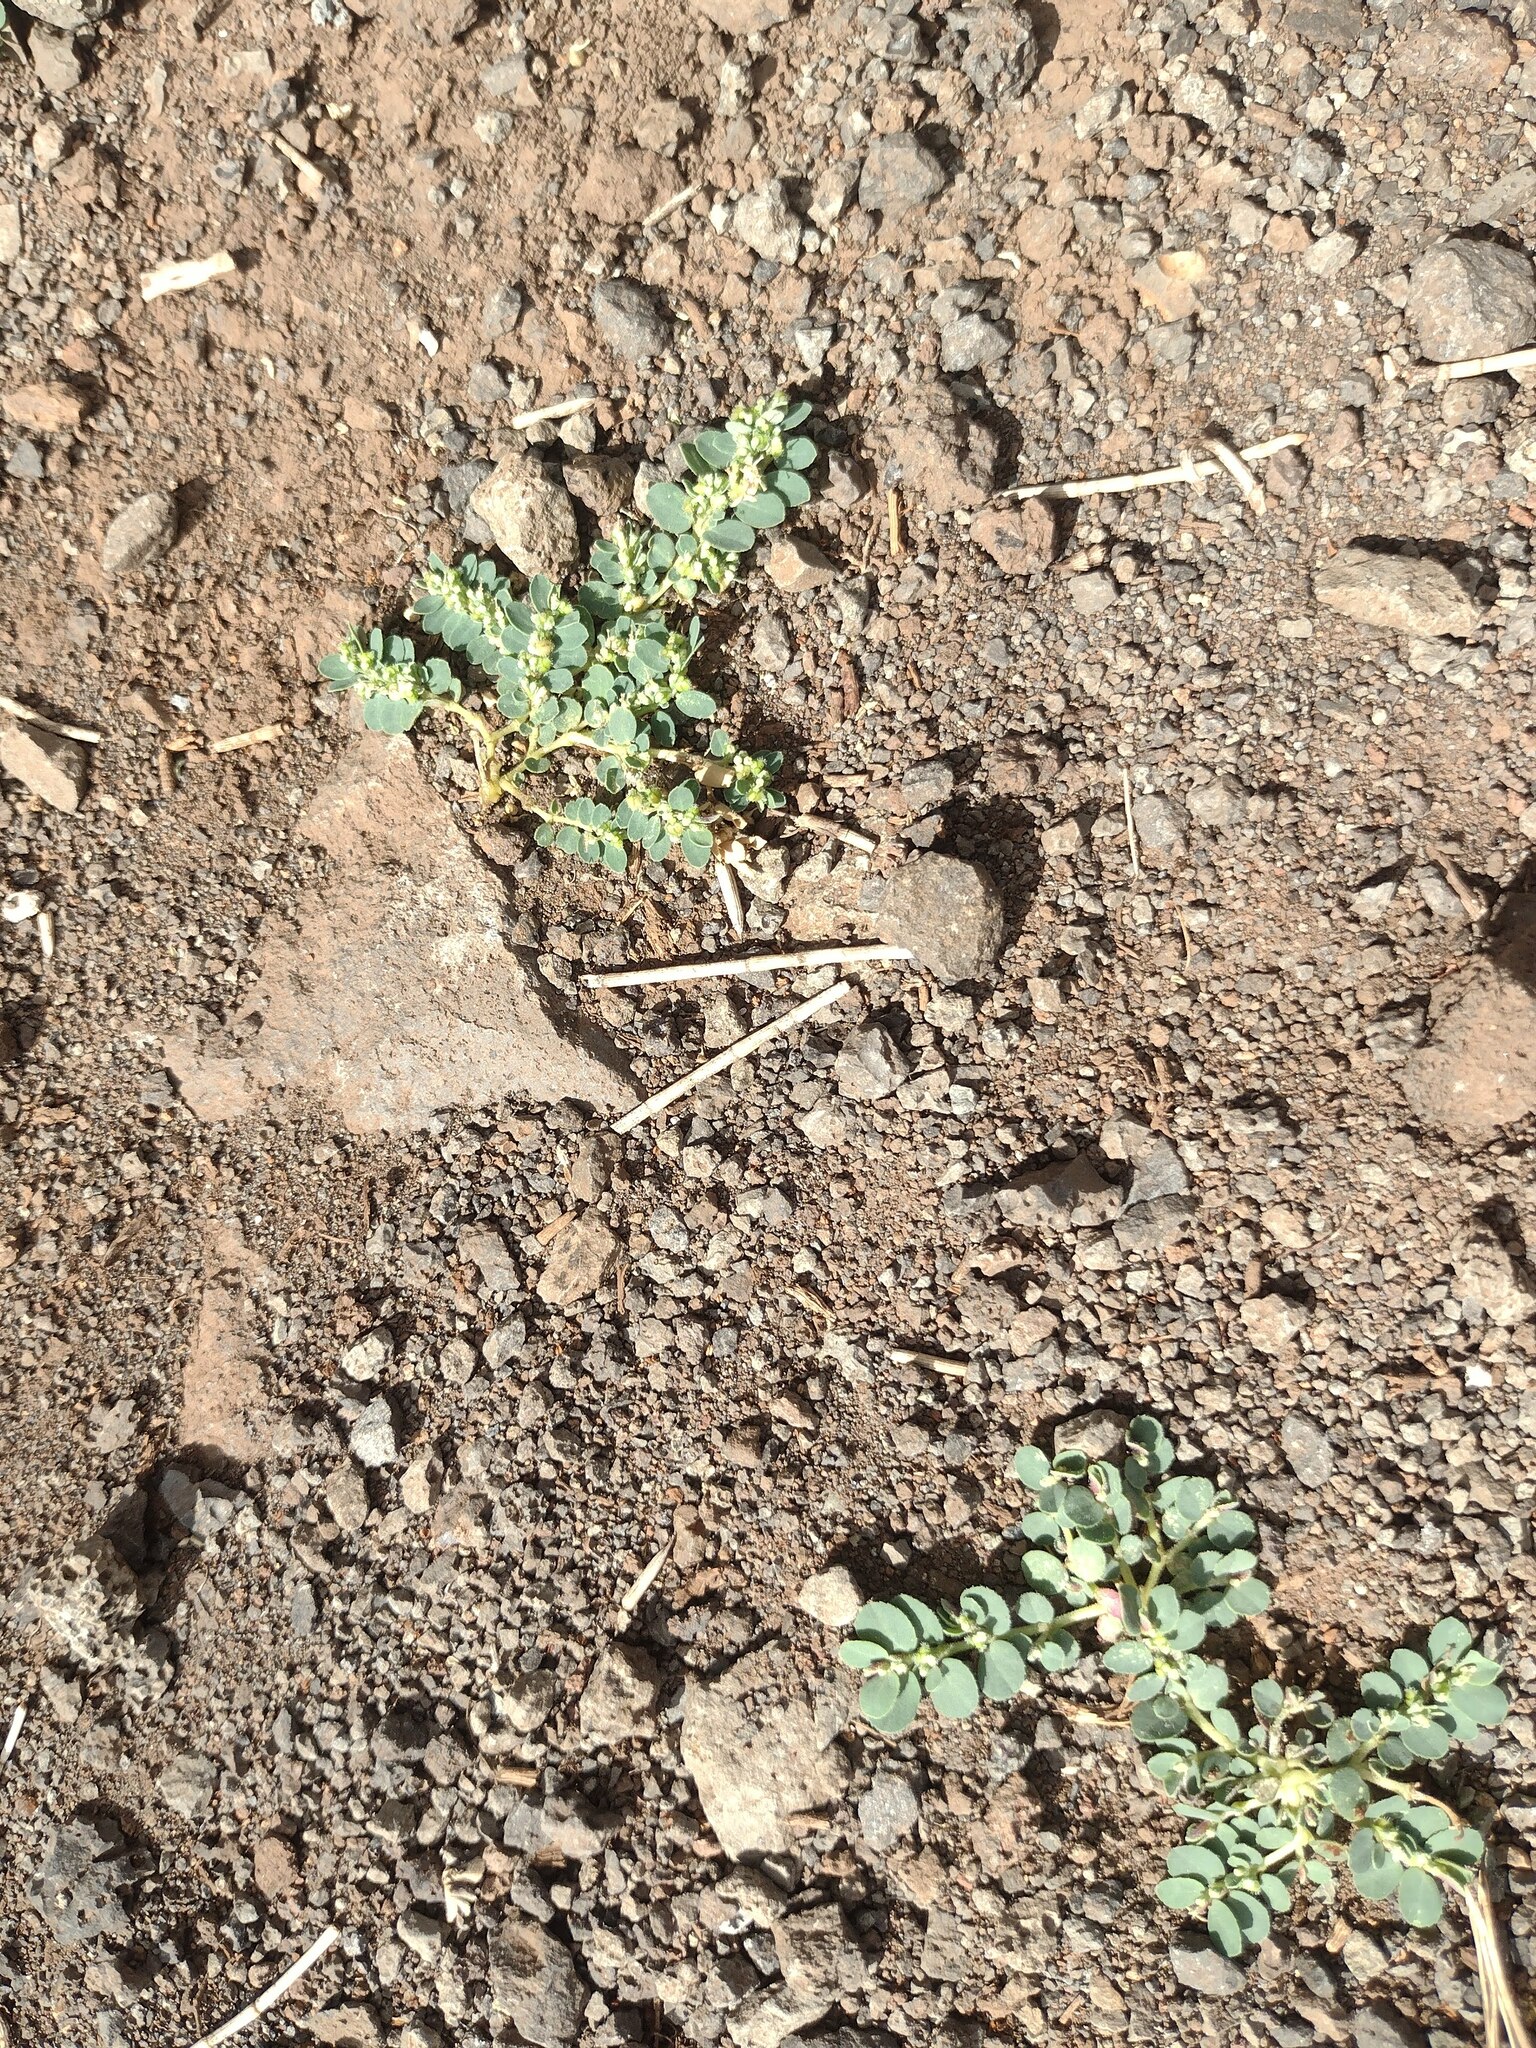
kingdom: Plantae
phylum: Tracheophyta
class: Magnoliopsida
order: Malpighiales
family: Euphorbiaceae
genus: Euphorbia
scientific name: Euphorbia prostrata
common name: Prostrate sandmat
